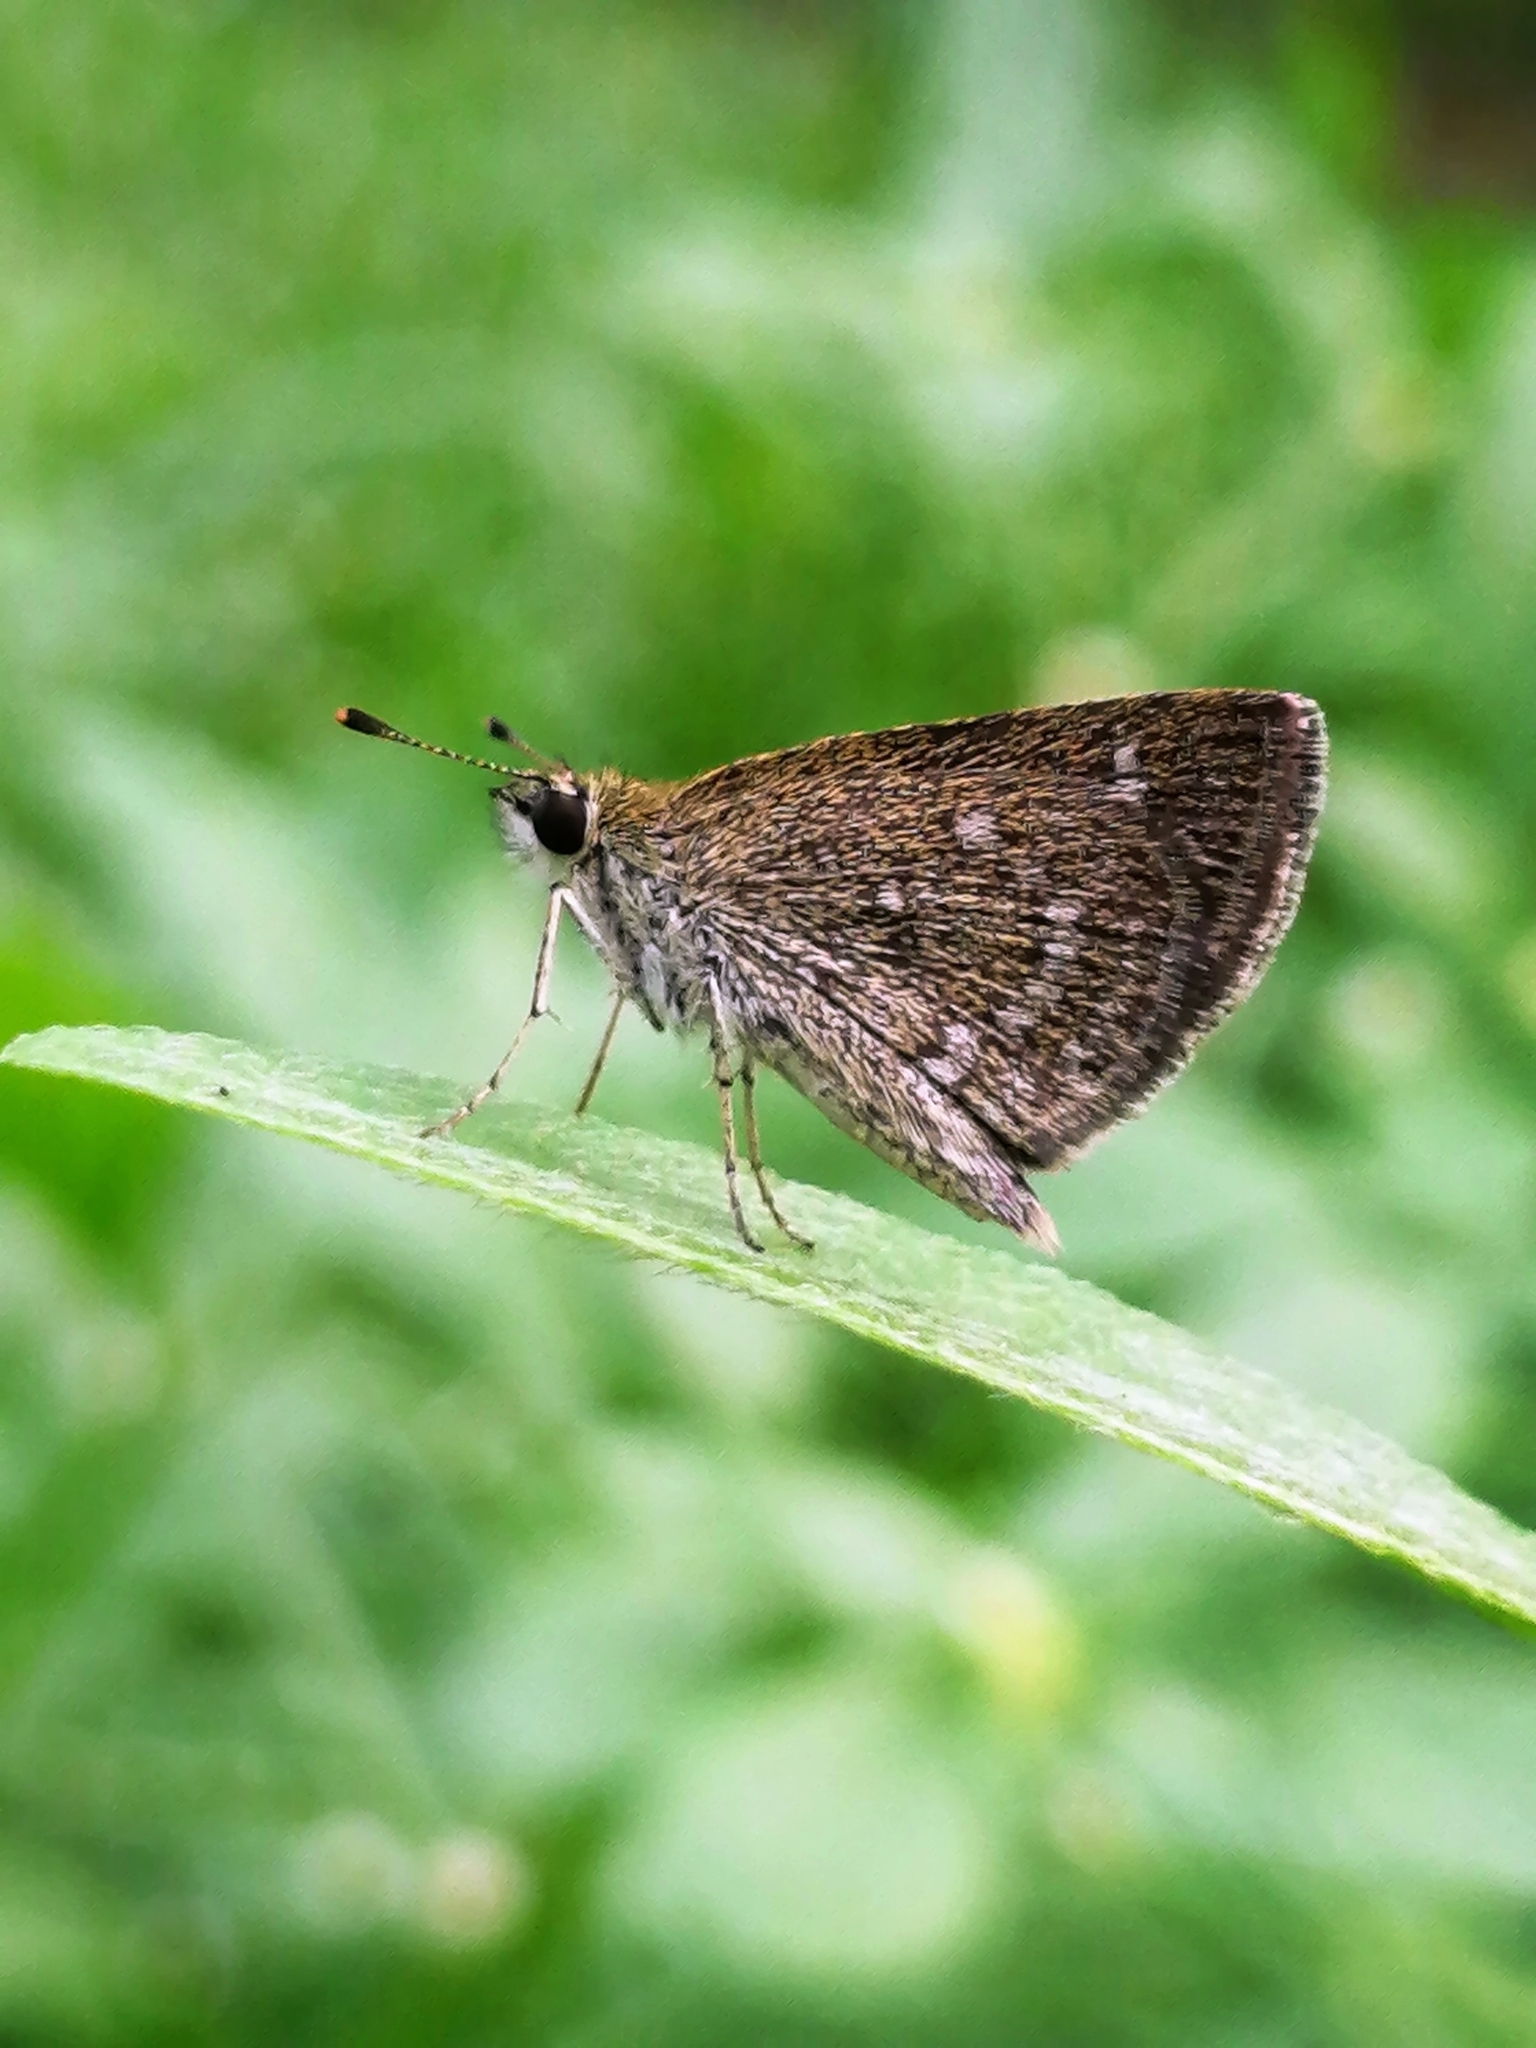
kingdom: Animalia
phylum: Arthropoda
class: Insecta
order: Lepidoptera
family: Hesperiidae
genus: Aeromachus
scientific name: Aeromachus pygmaeus
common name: Pygmy scrub hopper
